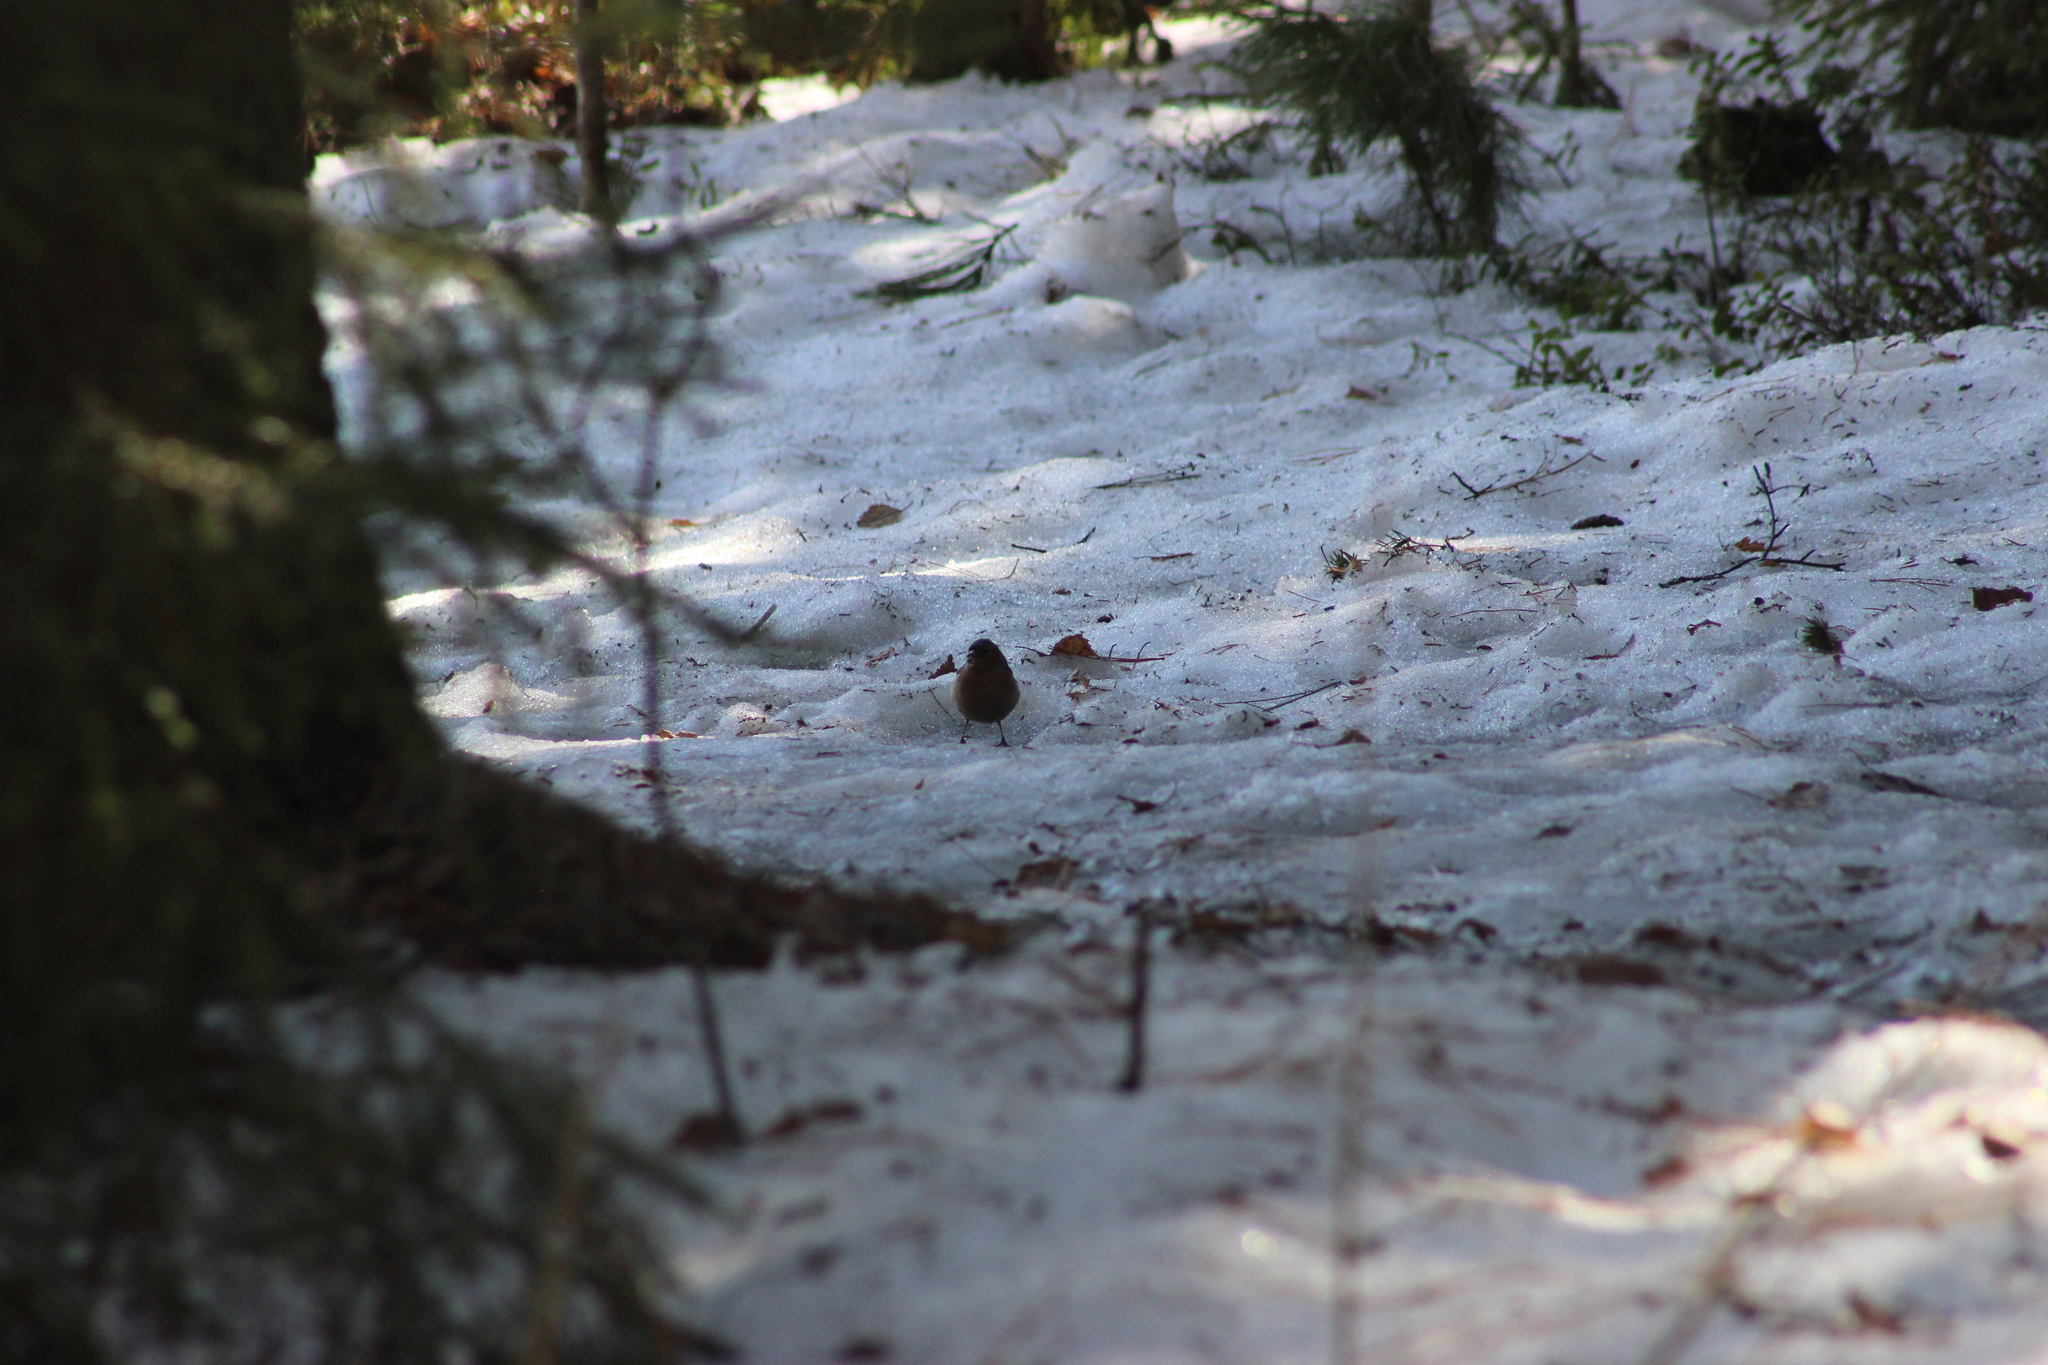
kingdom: Animalia
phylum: Chordata
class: Aves
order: Passeriformes
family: Fringillidae
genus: Fringilla
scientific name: Fringilla coelebs
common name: Common chaffinch
